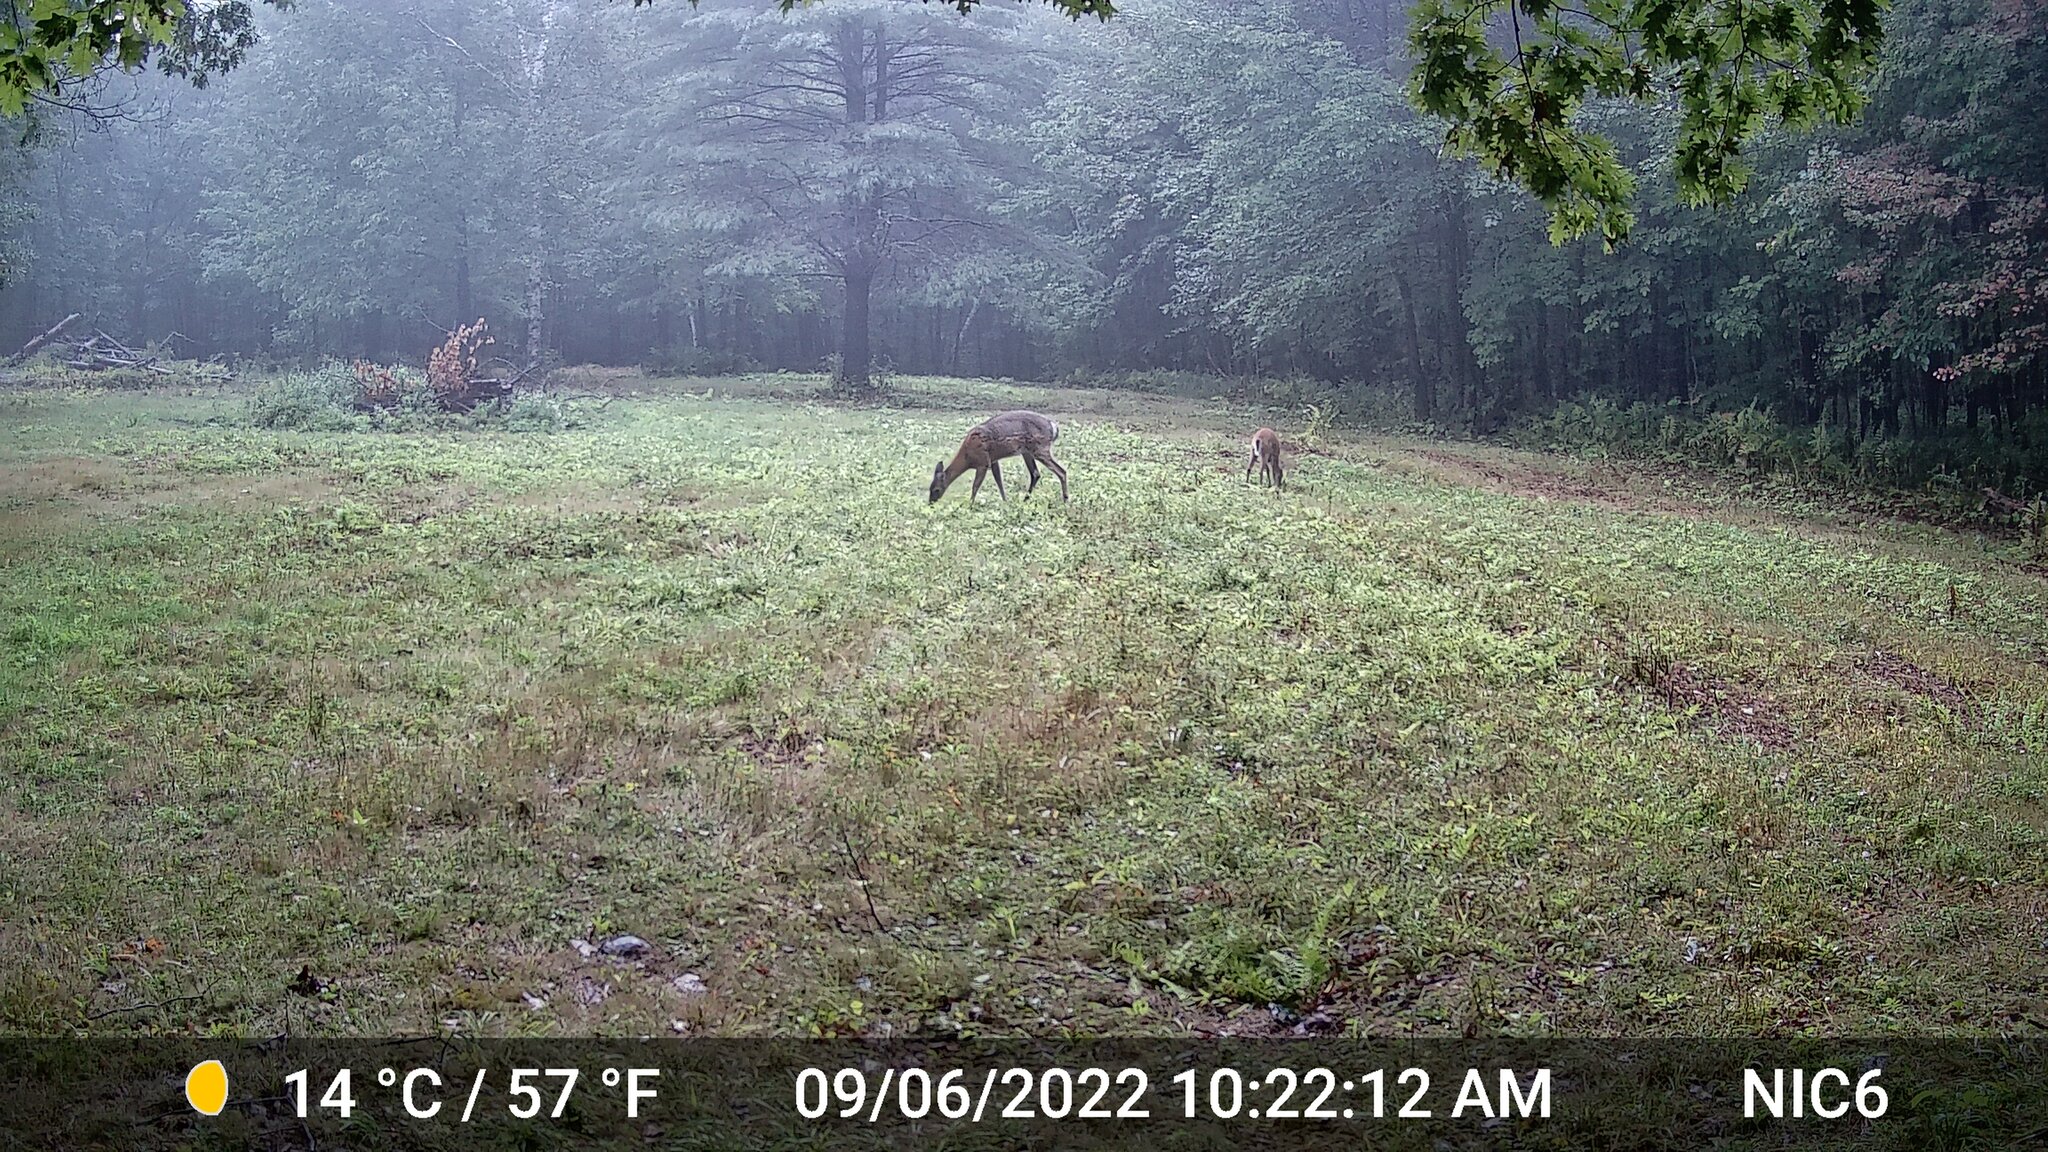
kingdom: Animalia
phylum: Chordata
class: Mammalia
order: Artiodactyla
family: Cervidae
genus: Odocoileus
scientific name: Odocoileus virginianus
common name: White-tailed deer
